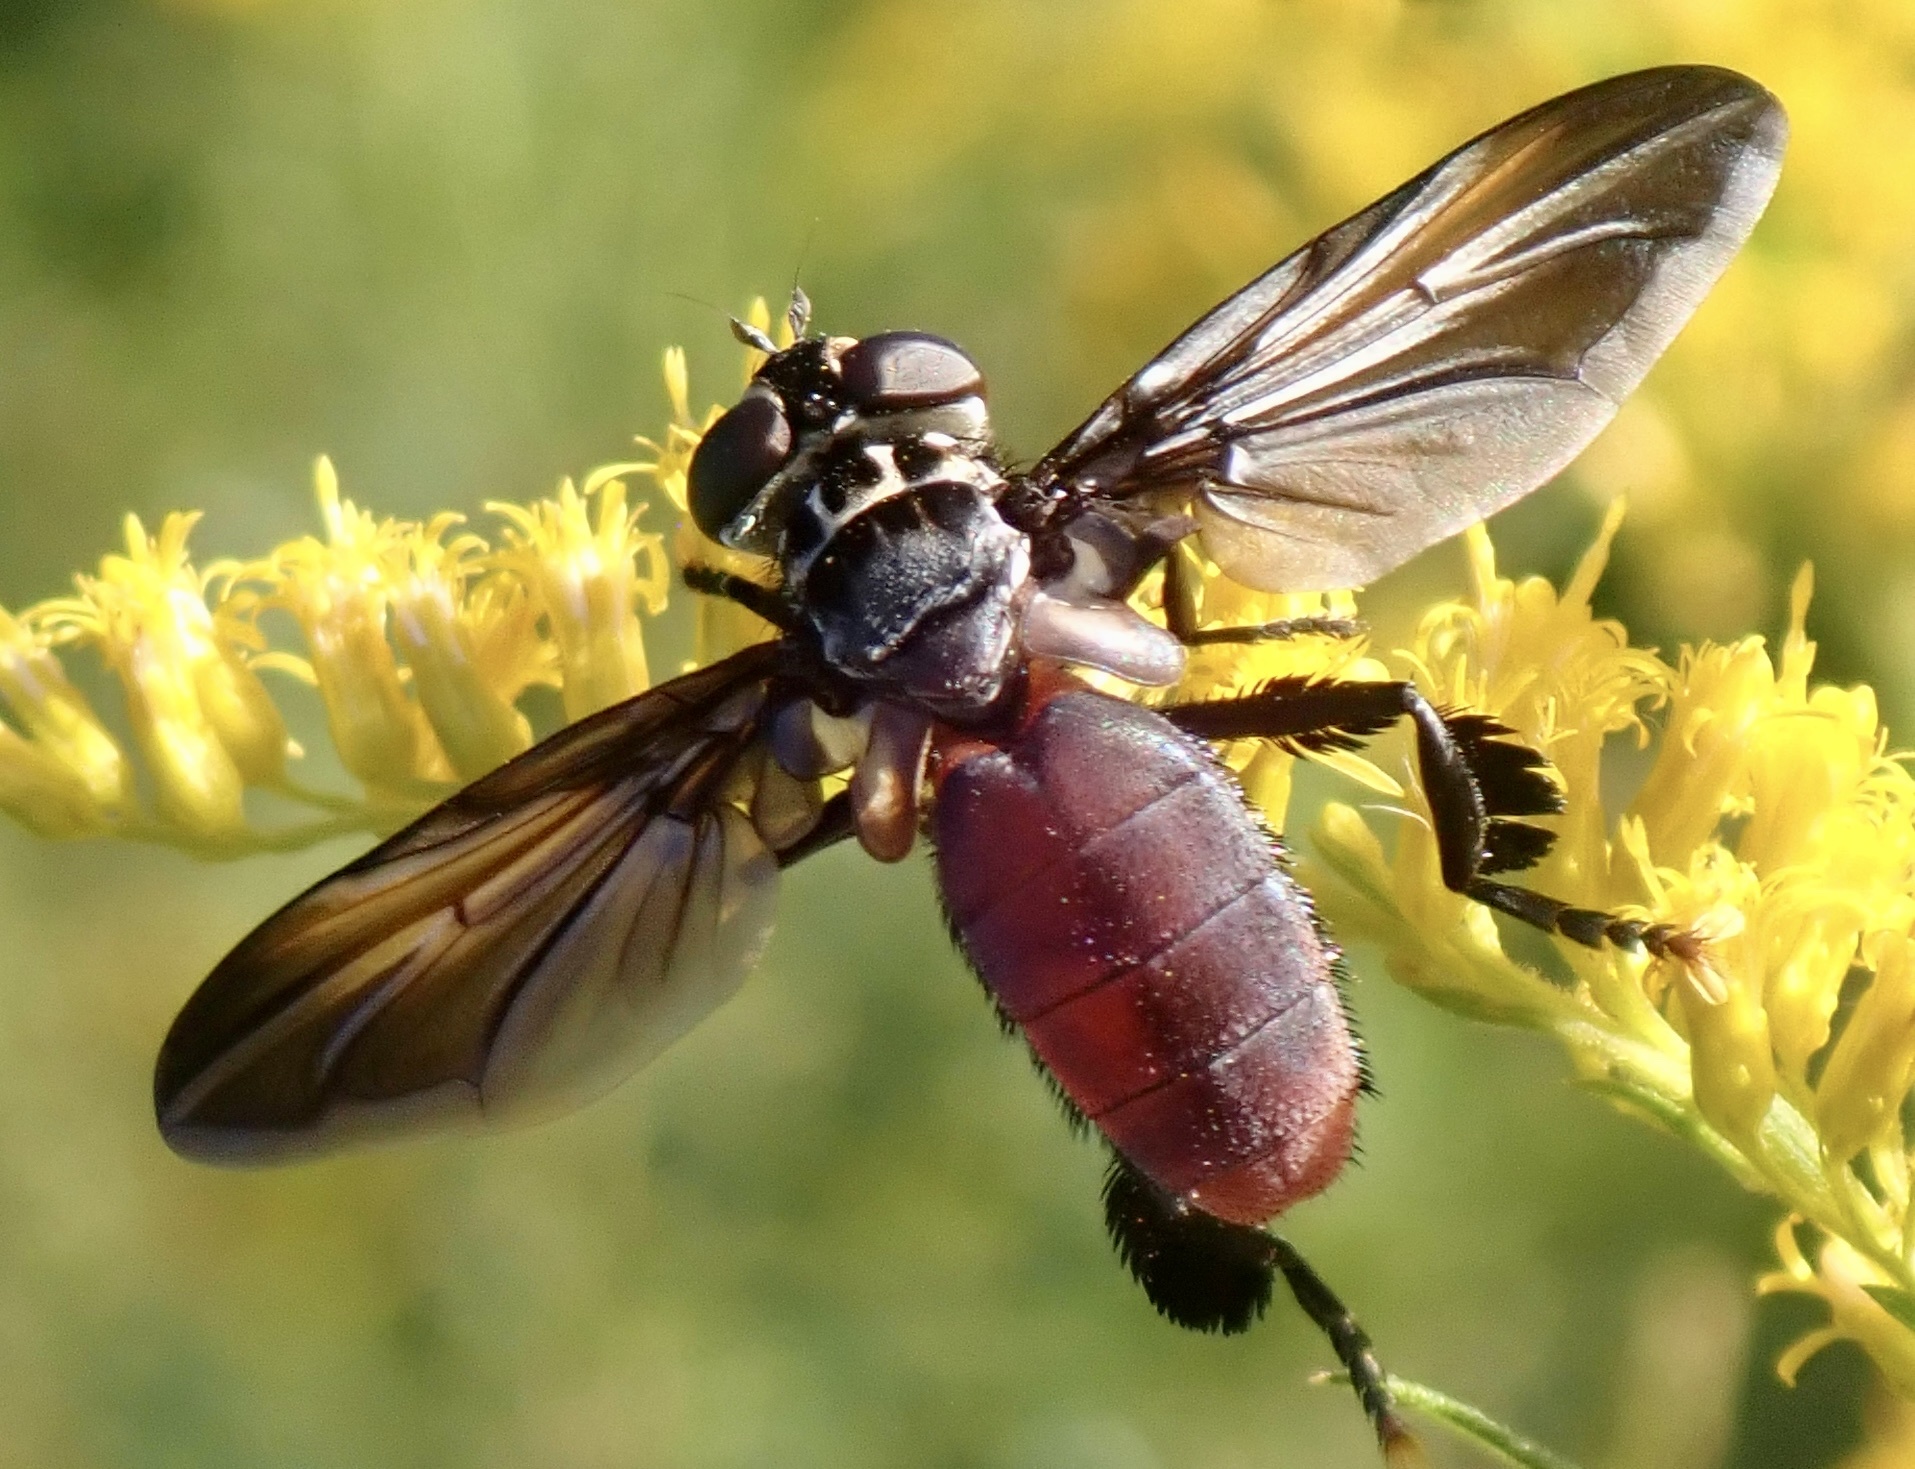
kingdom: Animalia
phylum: Arthropoda
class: Insecta
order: Diptera
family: Tachinidae
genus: Trichopoda
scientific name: Trichopoda lanipes
